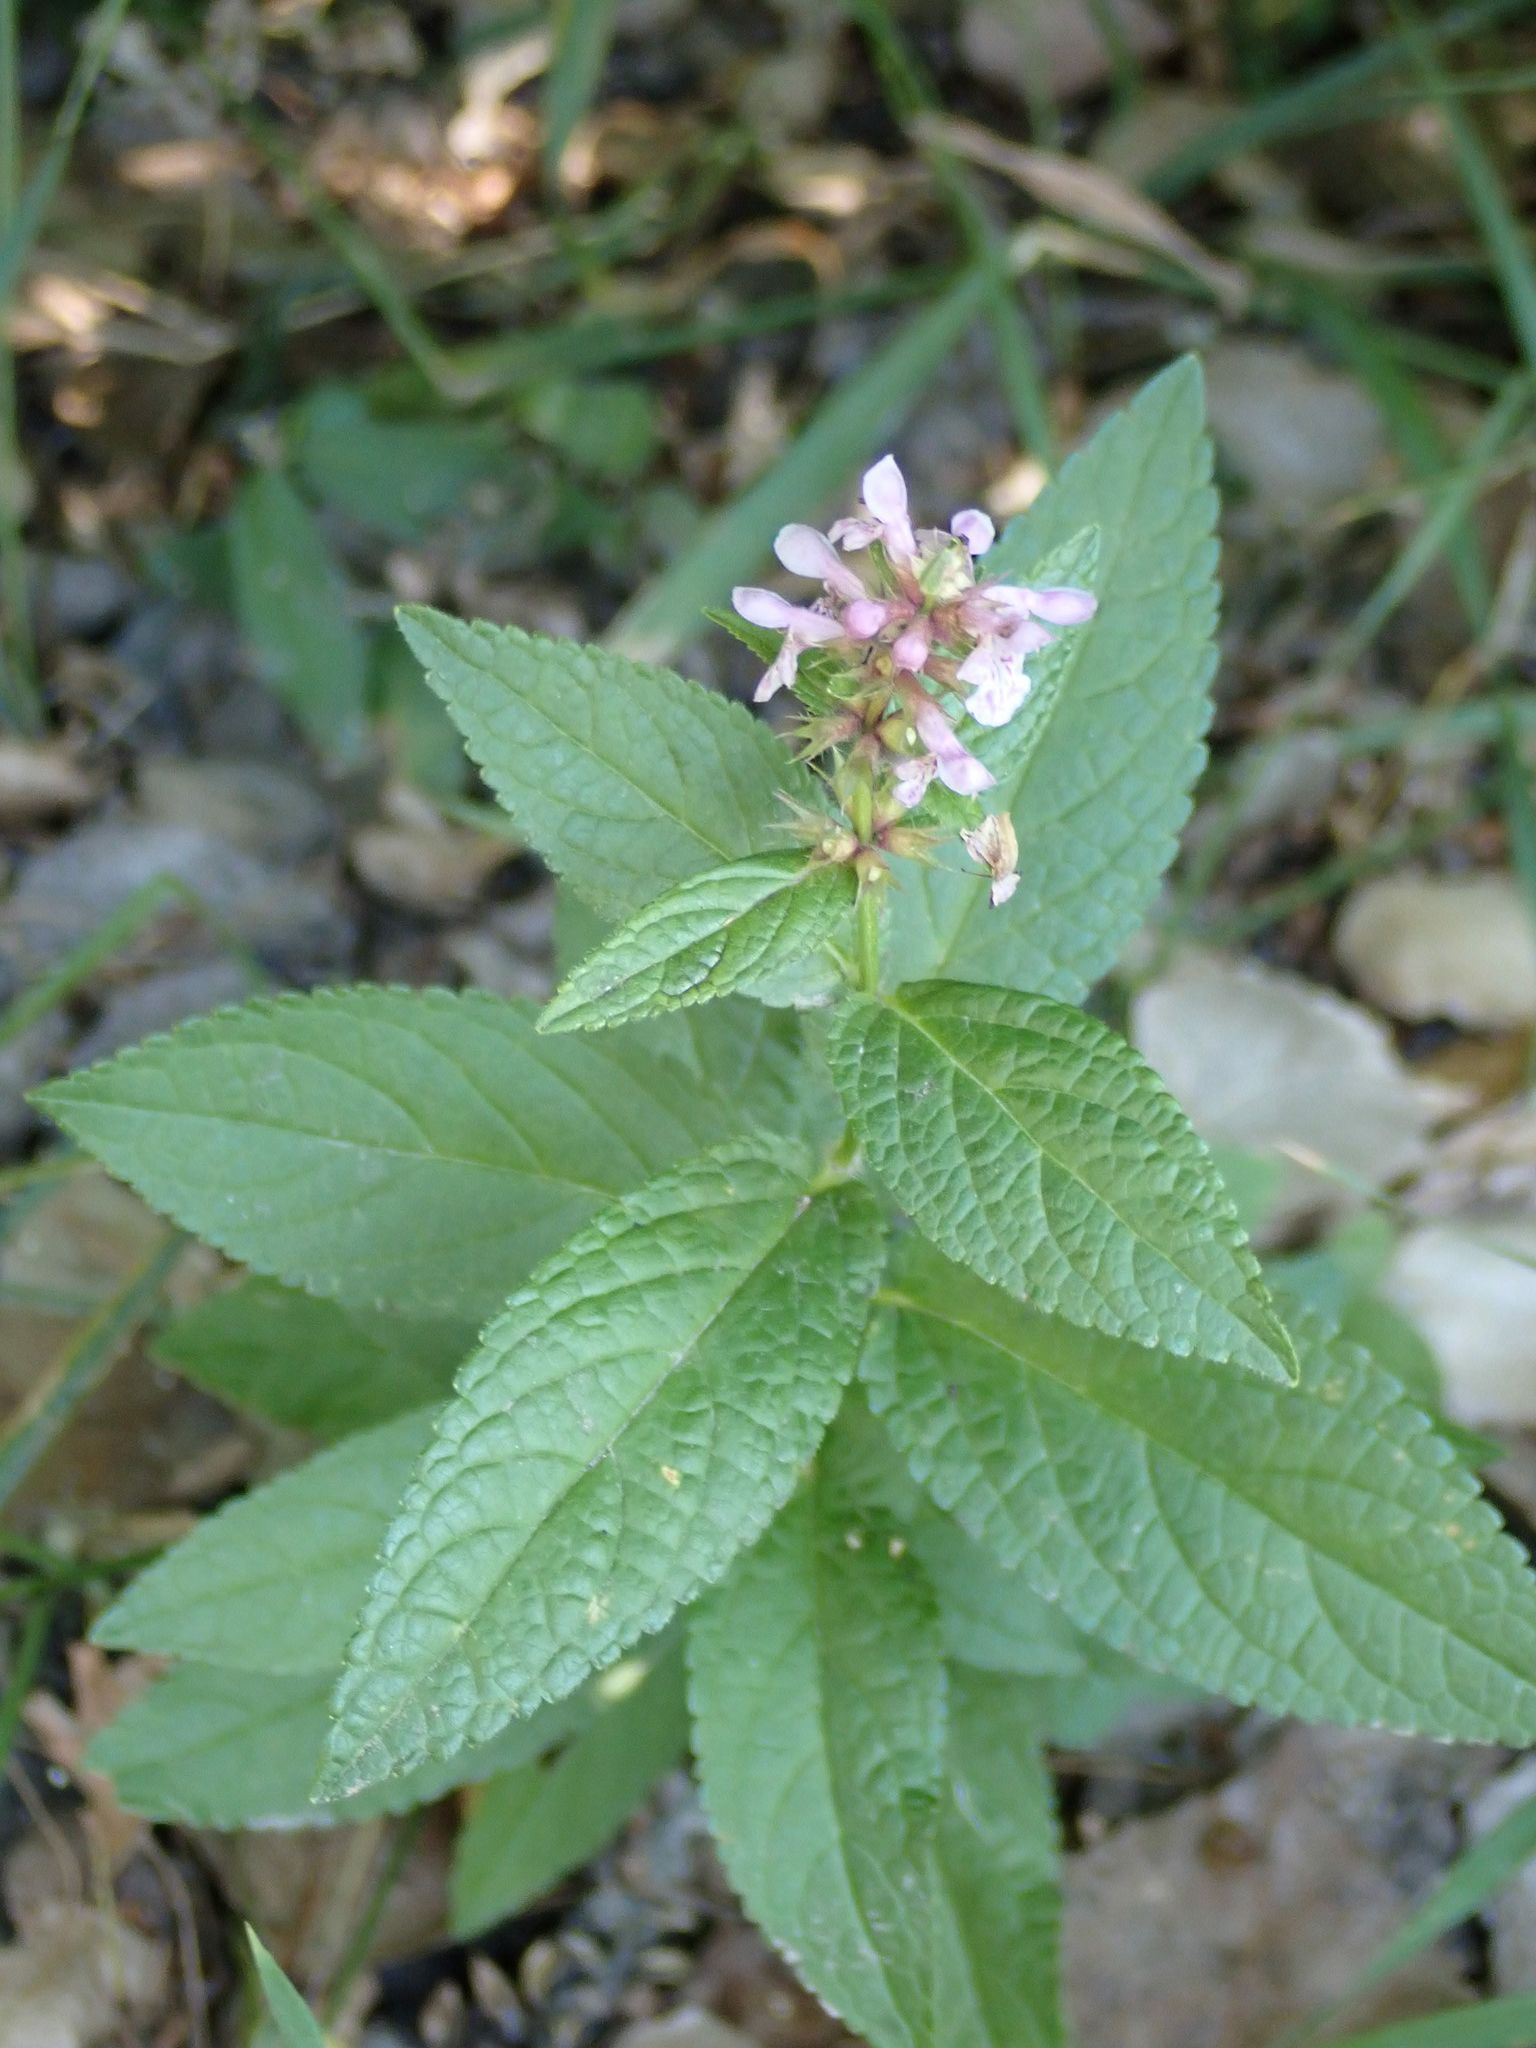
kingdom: Plantae
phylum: Tracheophyta
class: Magnoliopsida
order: Lamiales
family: Lamiaceae
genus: Stachys
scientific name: Stachys palustris
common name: Marsh woundwort
